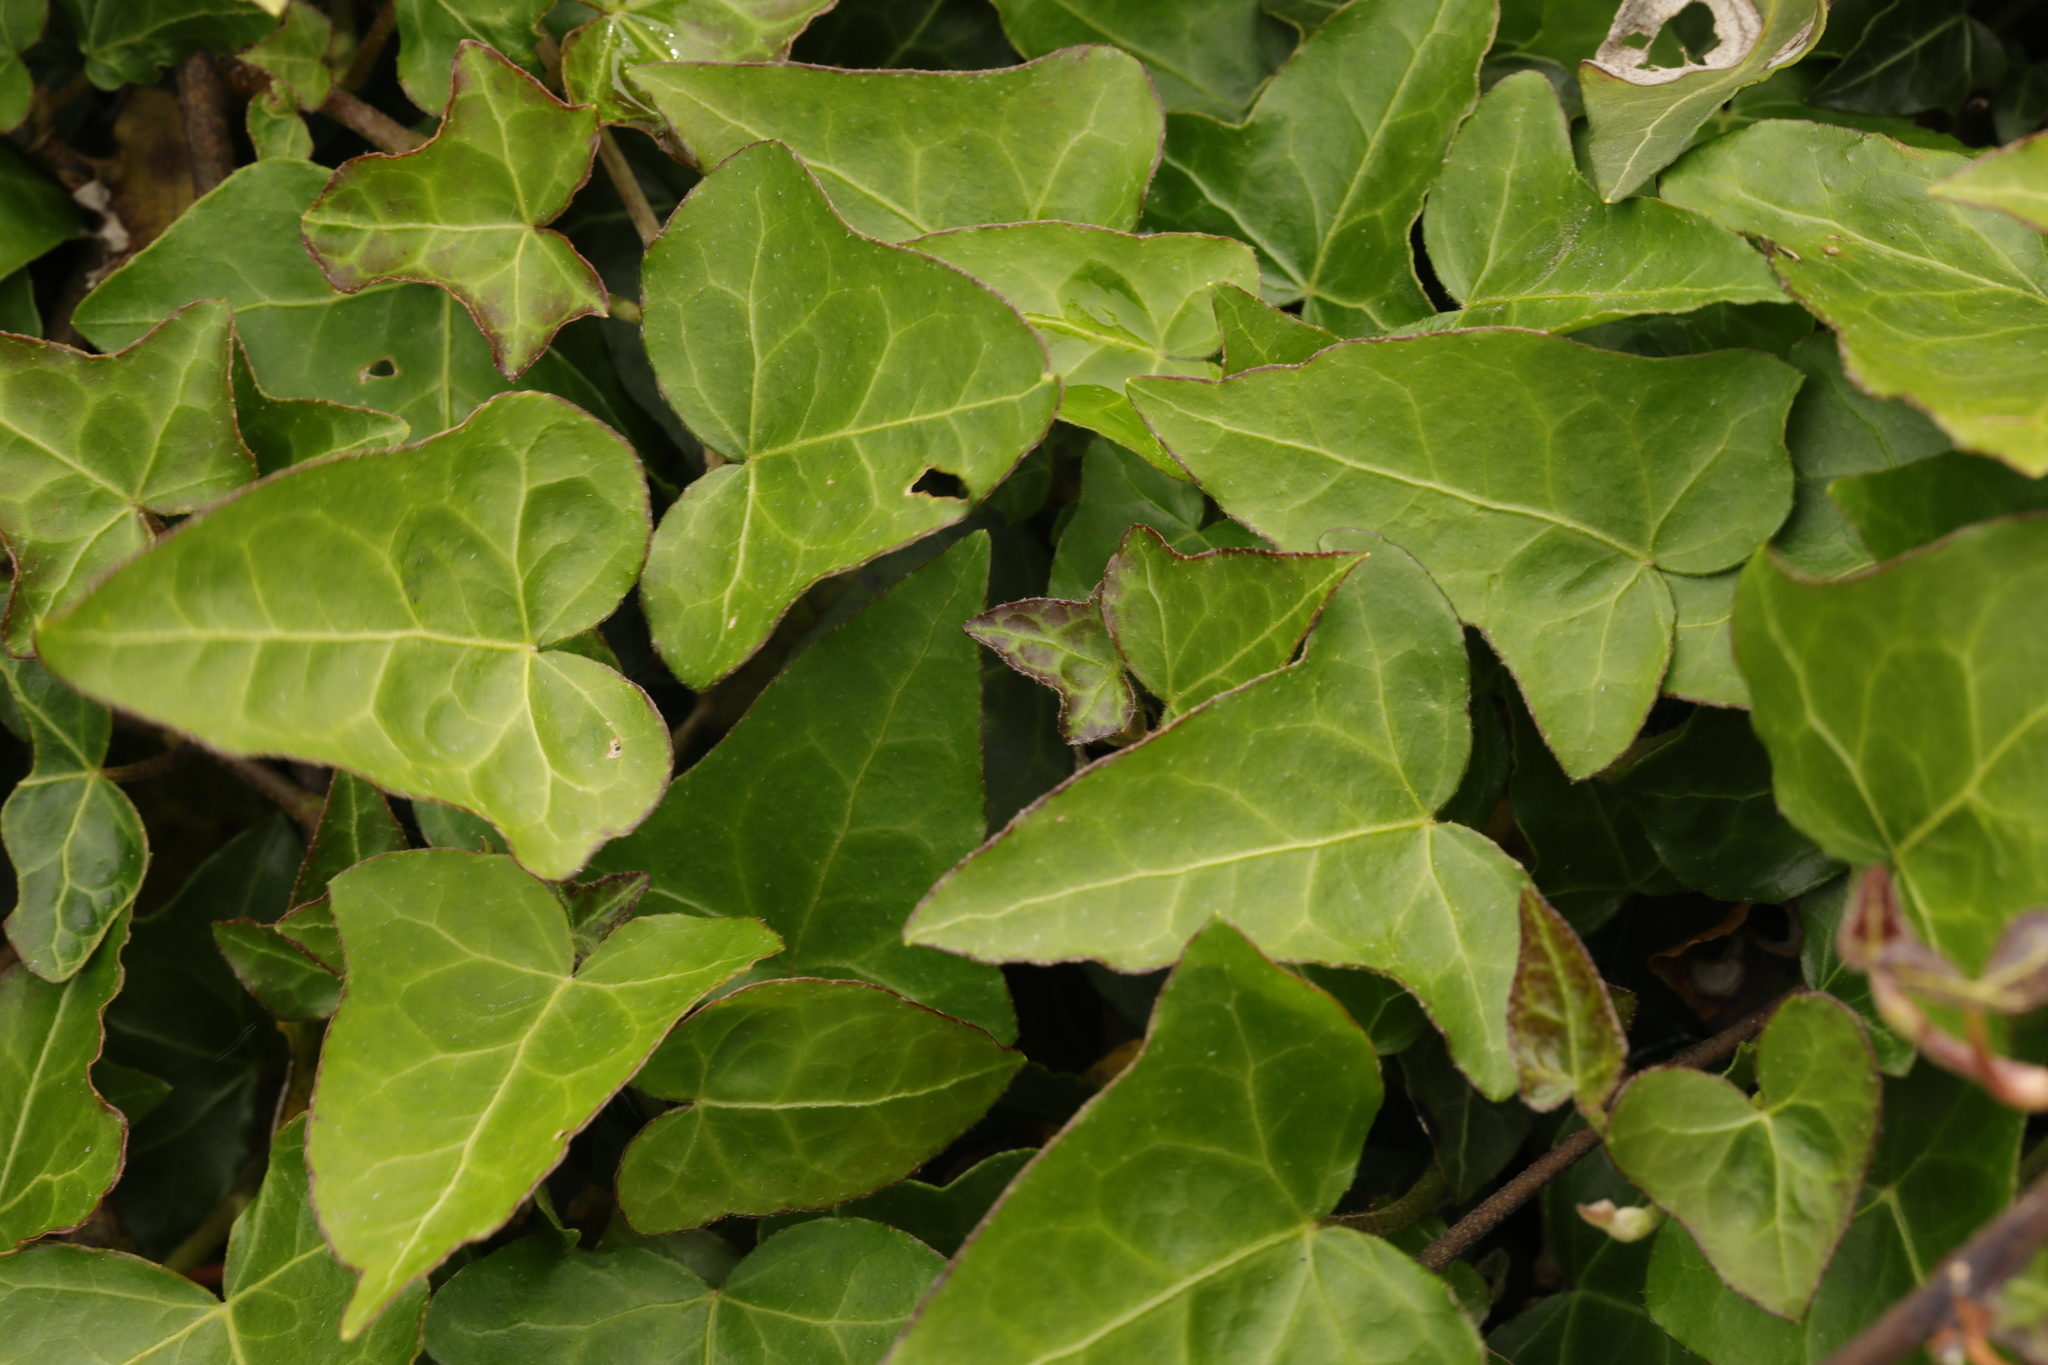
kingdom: Plantae
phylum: Tracheophyta
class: Magnoliopsida
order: Apiales
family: Araliaceae
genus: Hedera
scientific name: Hedera helix
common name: Ivy
